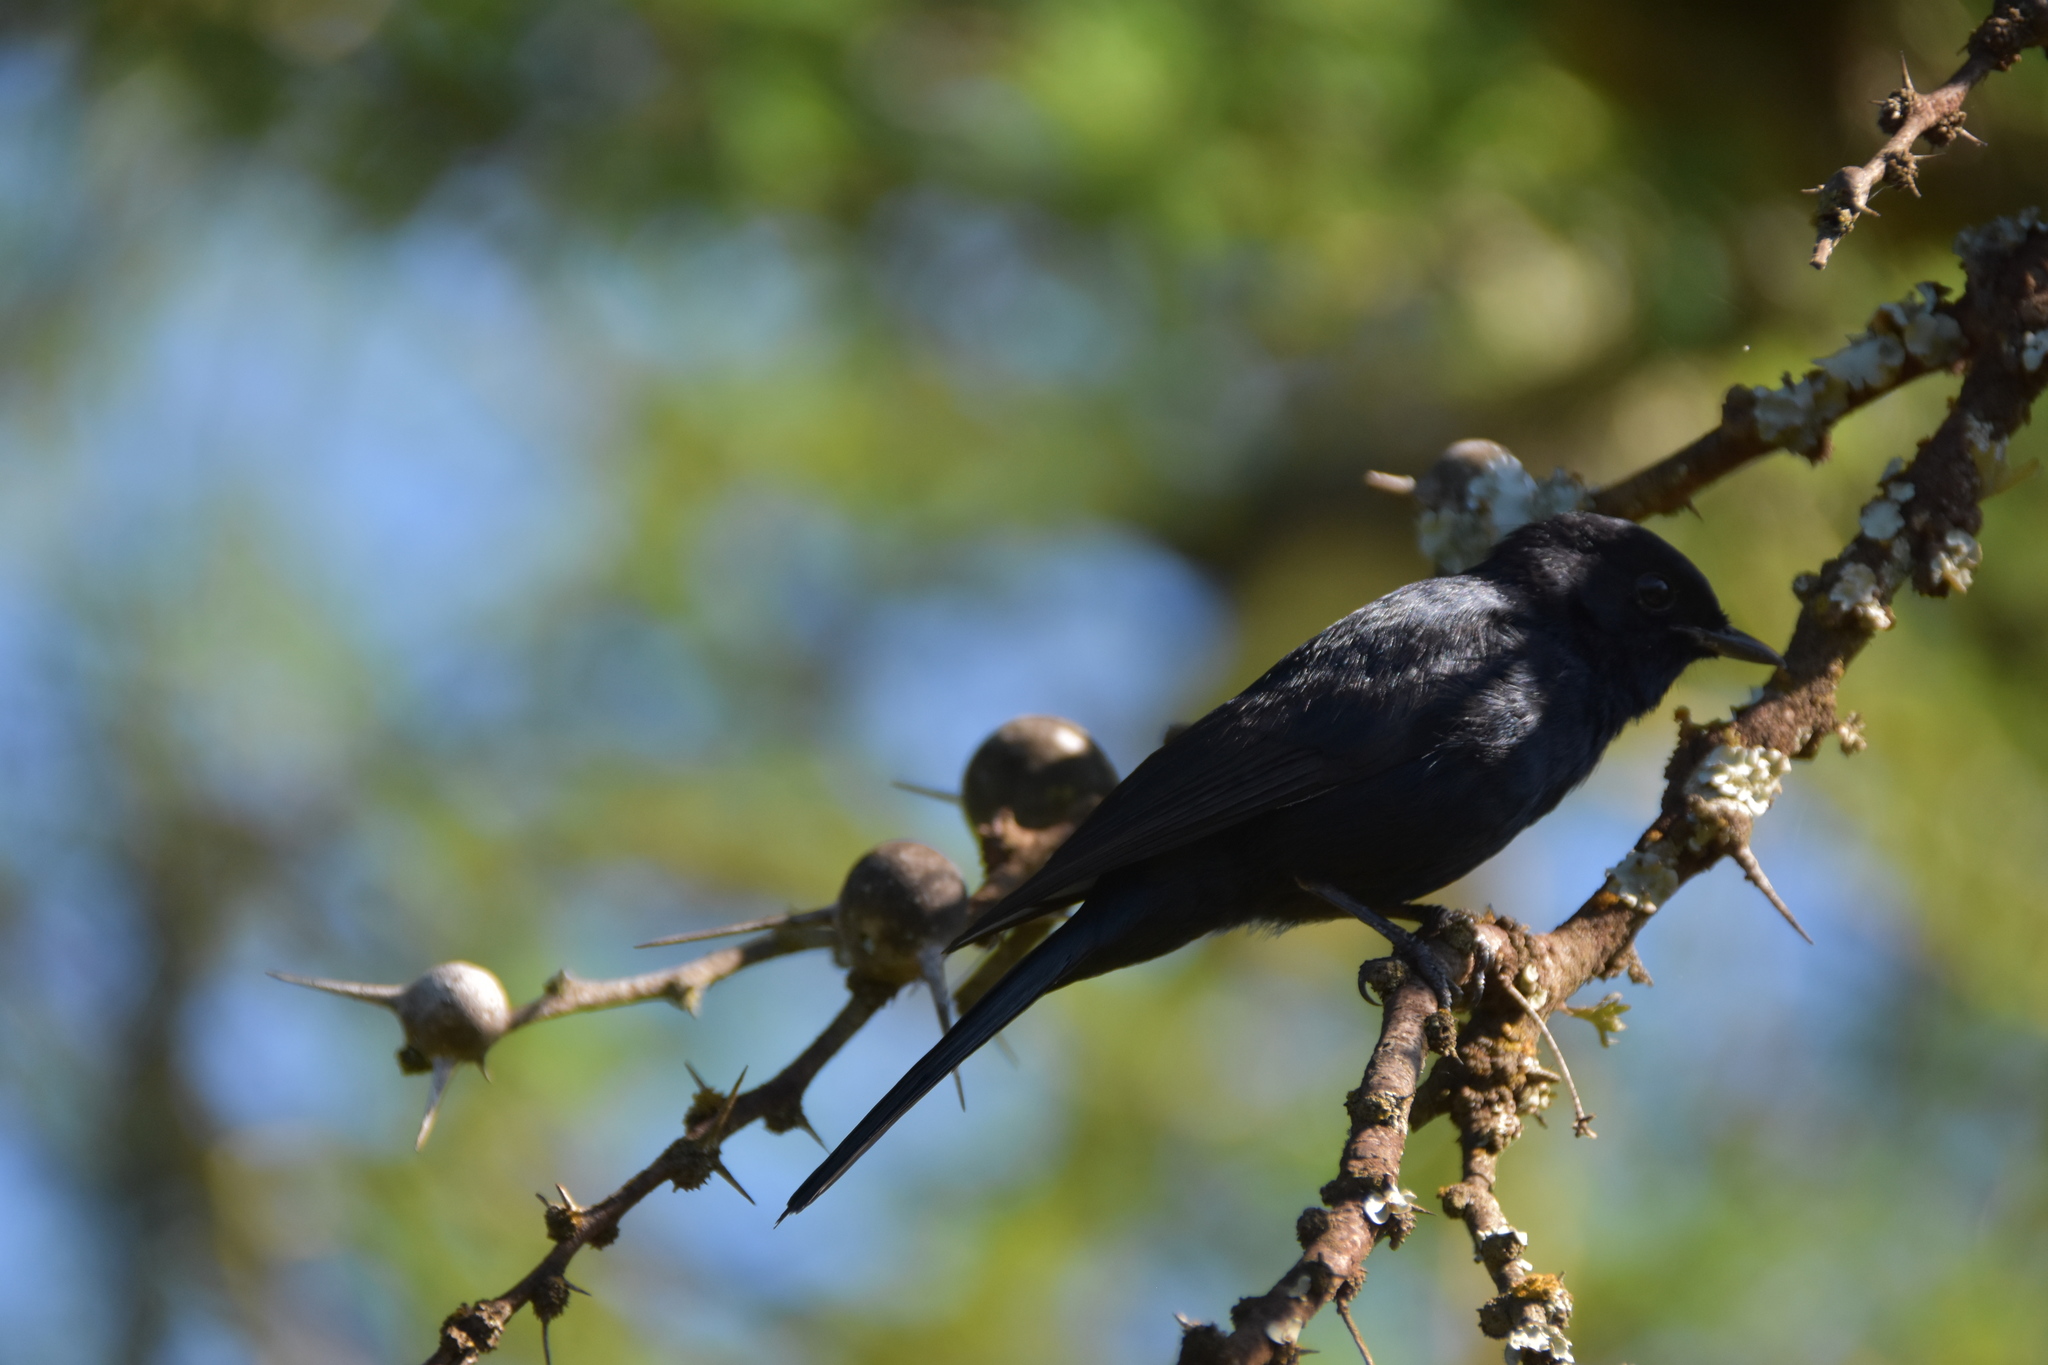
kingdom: Animalia
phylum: Chordata
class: Aves
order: Passeriformes
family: Muscicapidae
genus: Melaenornis
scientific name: Melaenornis pammelaina
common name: Southern black flycatcher
